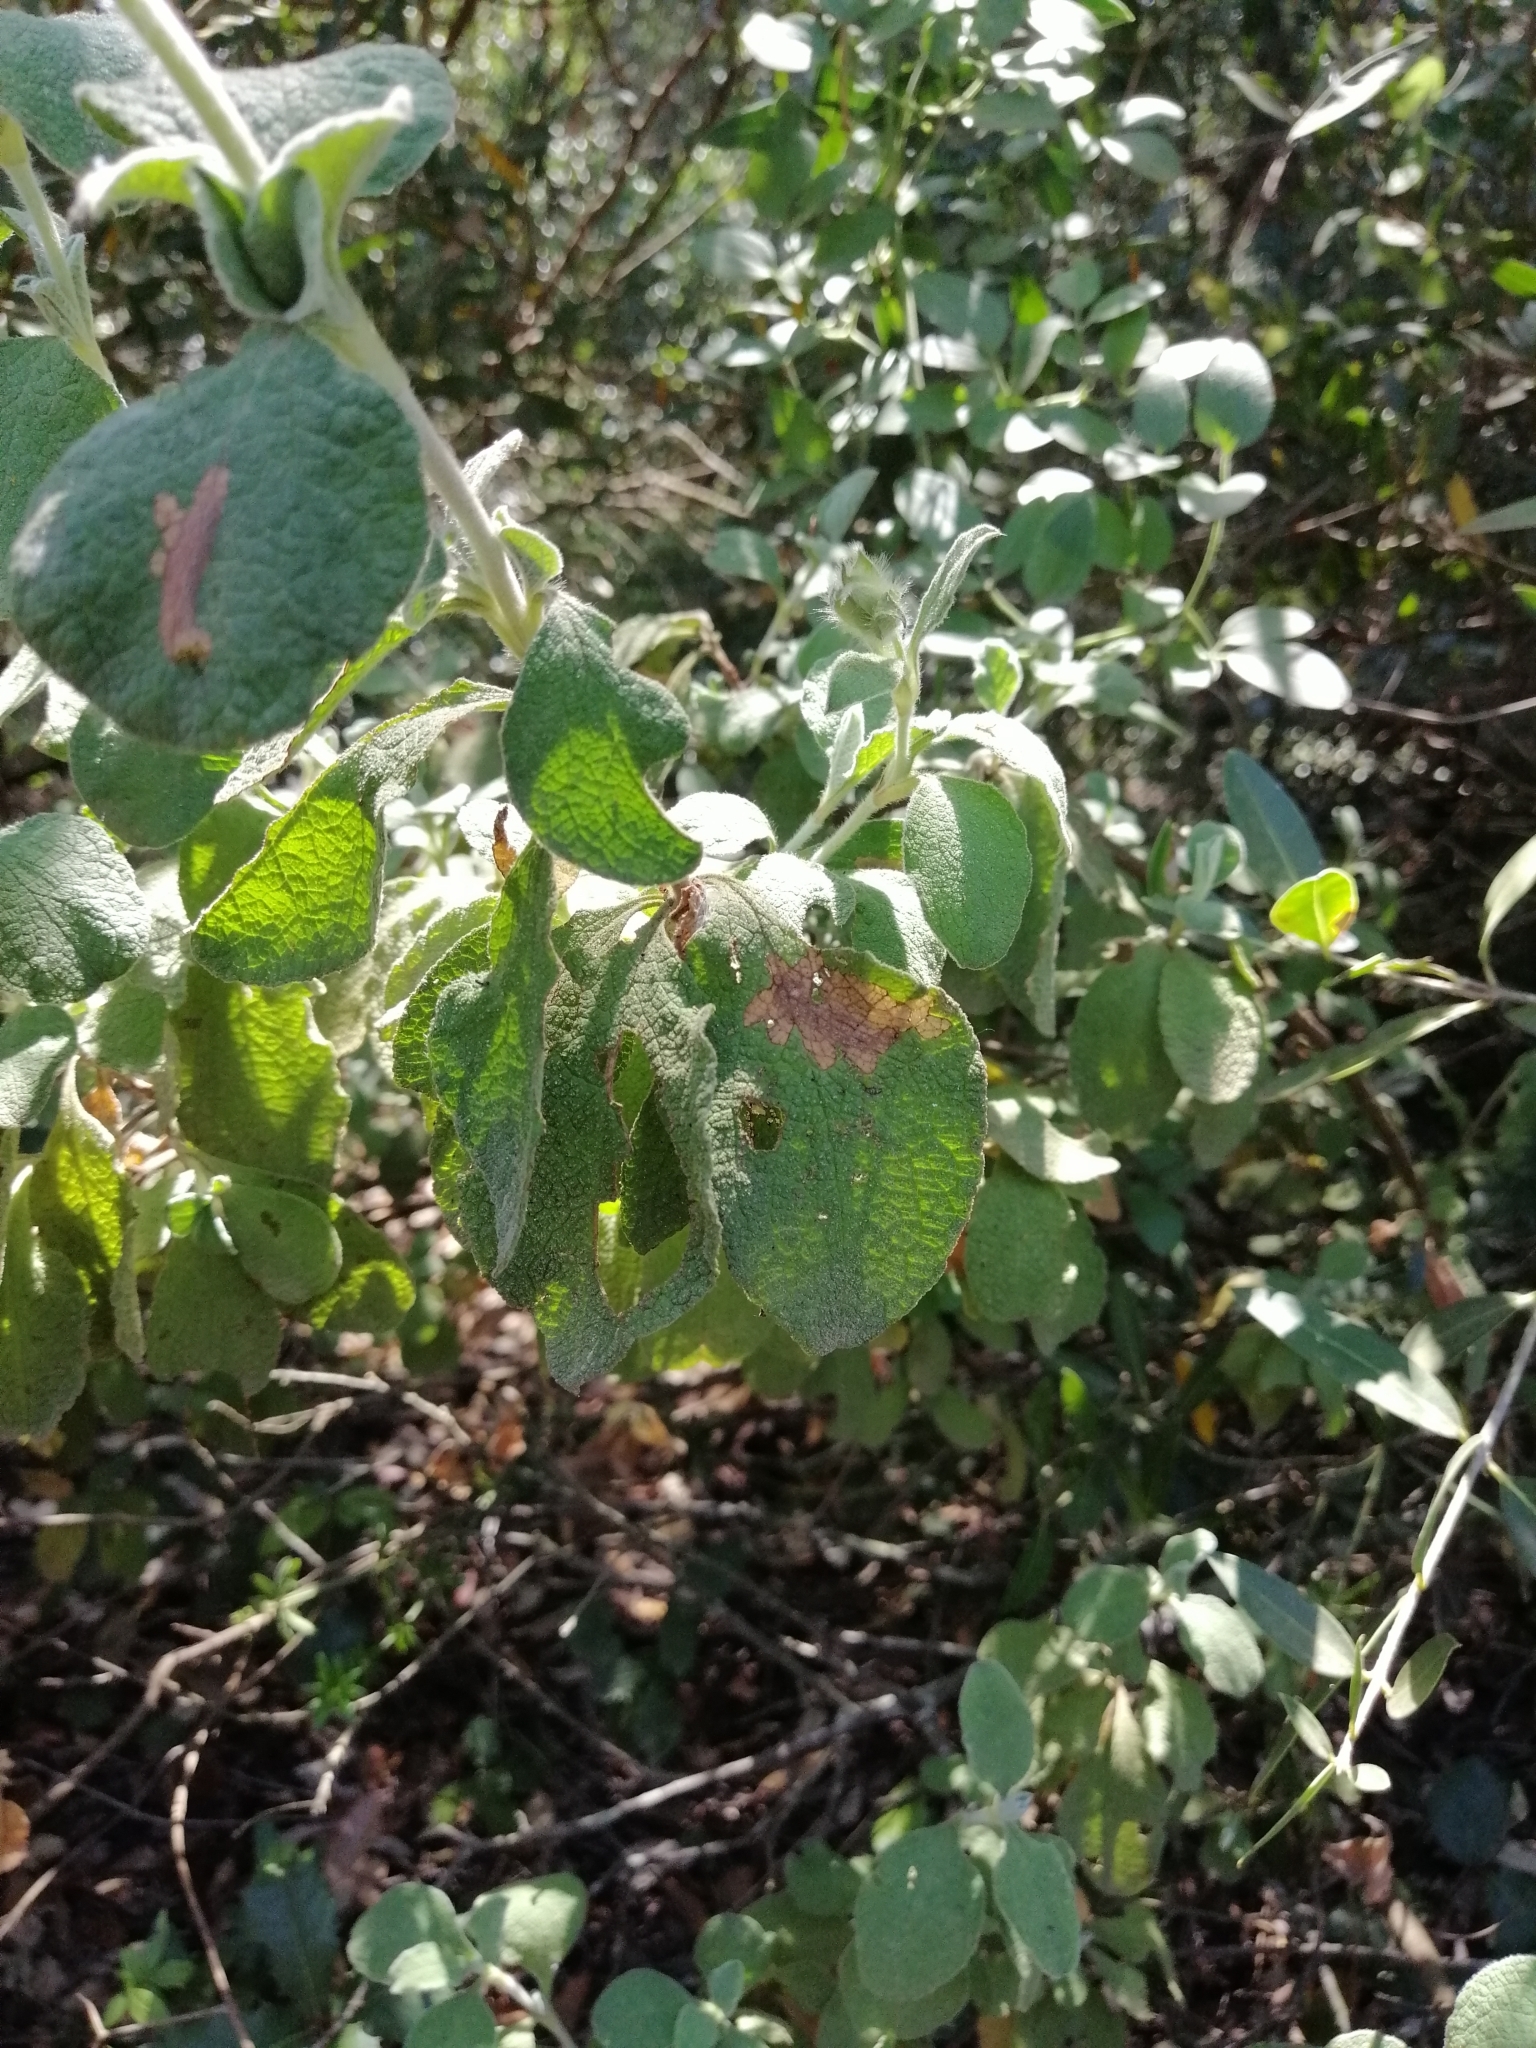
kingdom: Plantae
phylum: Tracheophyta
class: Magnoliopsida
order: Malvales
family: Cistaceae
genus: Cistus
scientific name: Cistus creticus
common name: Cretan rockrose
